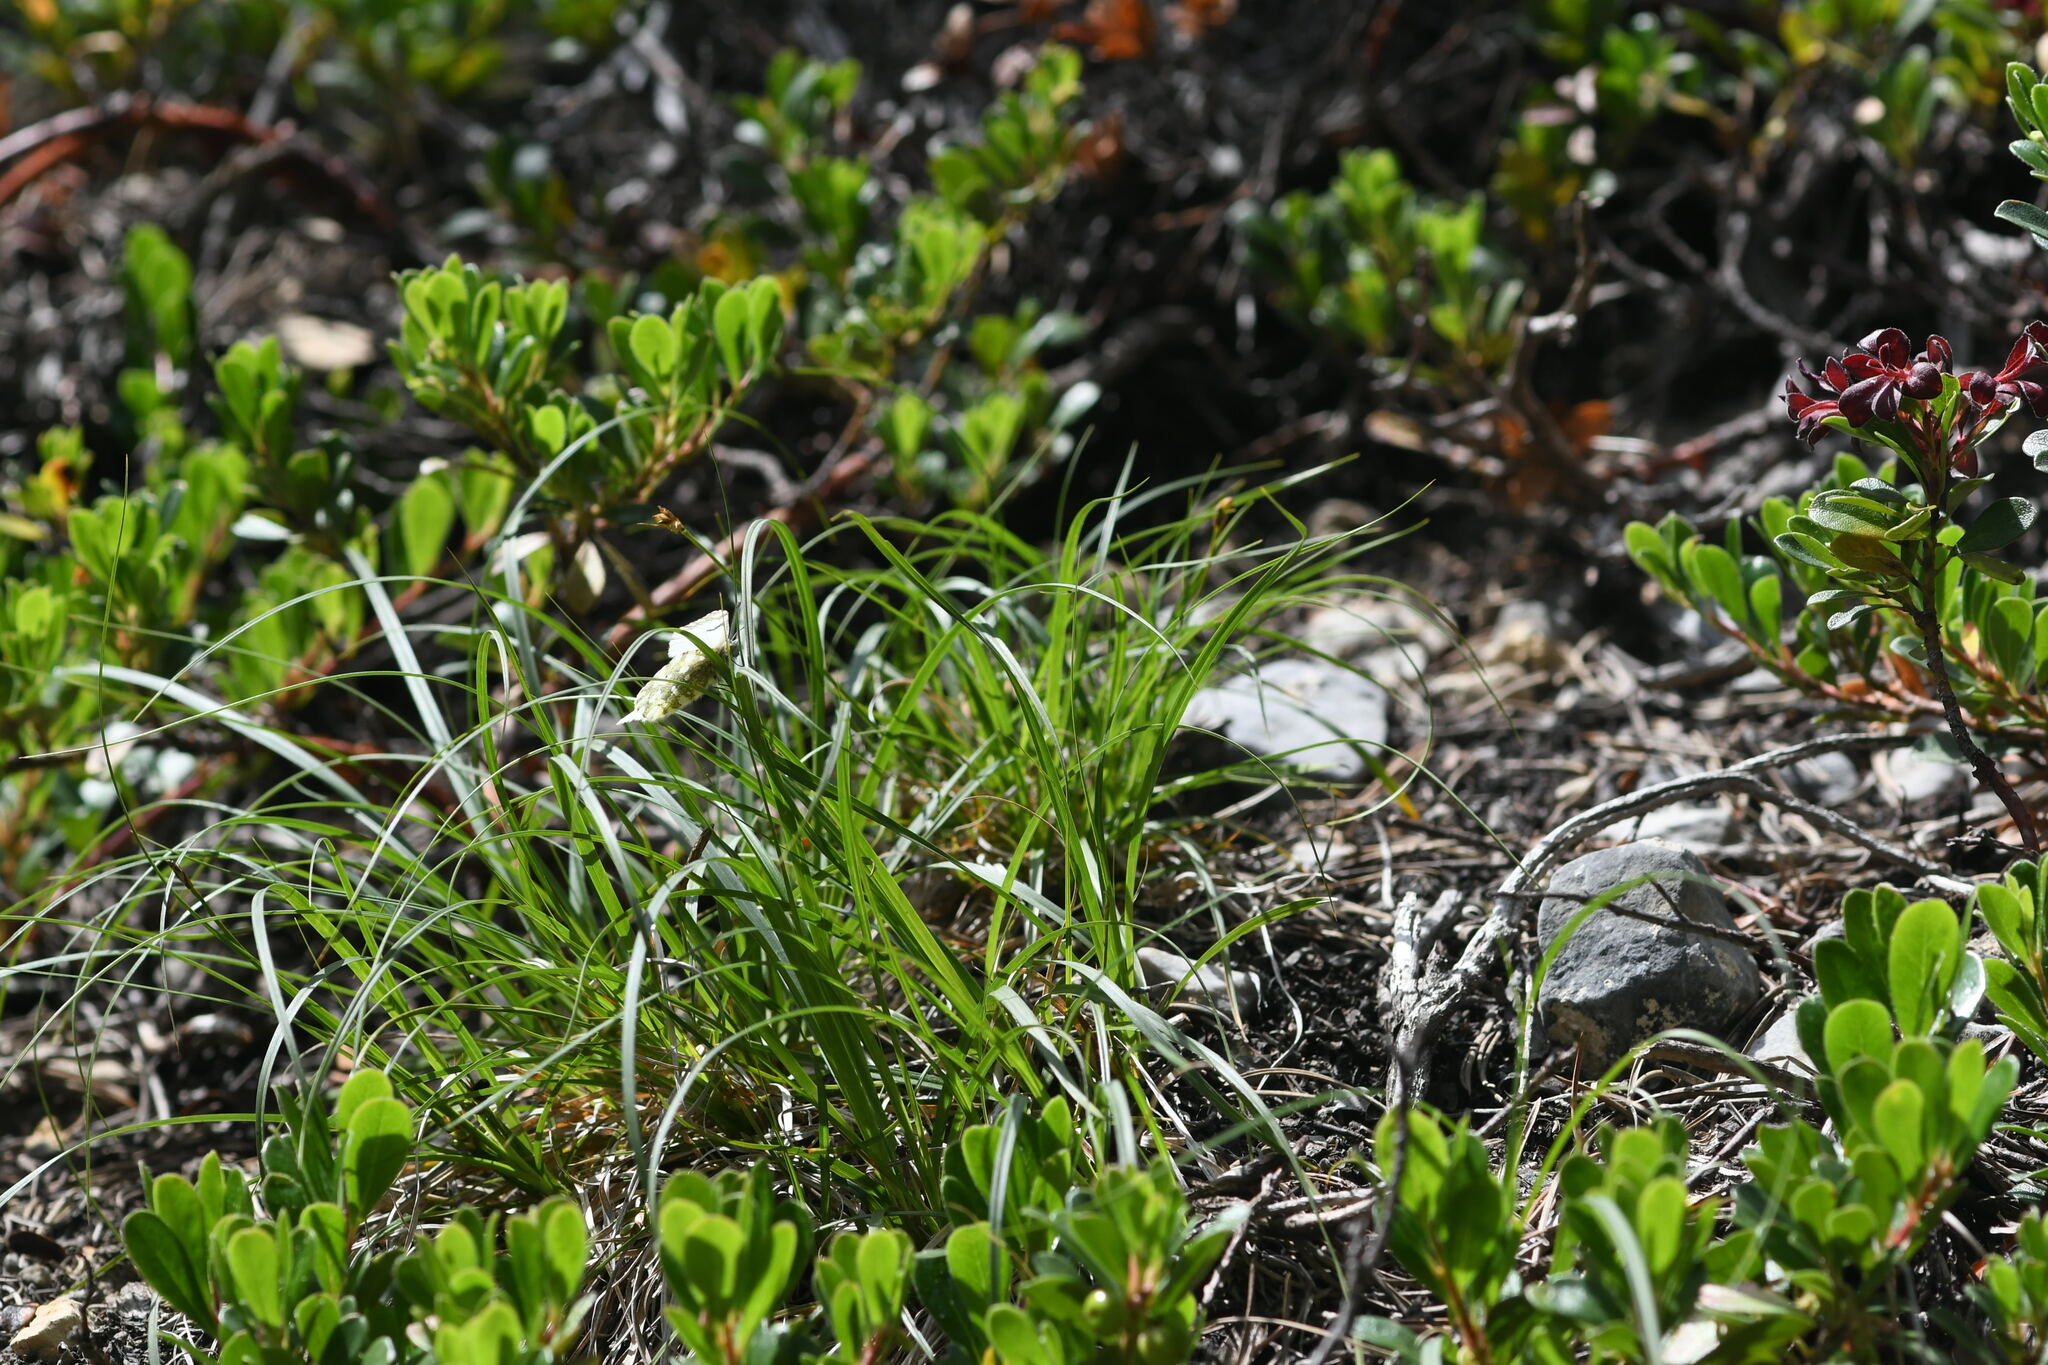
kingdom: Animalia
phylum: Arthropoda
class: Insecta
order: Lepidoptera
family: Pieridae
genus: Euchloe
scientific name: Euchloe simplonia
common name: Mountain dappled white
